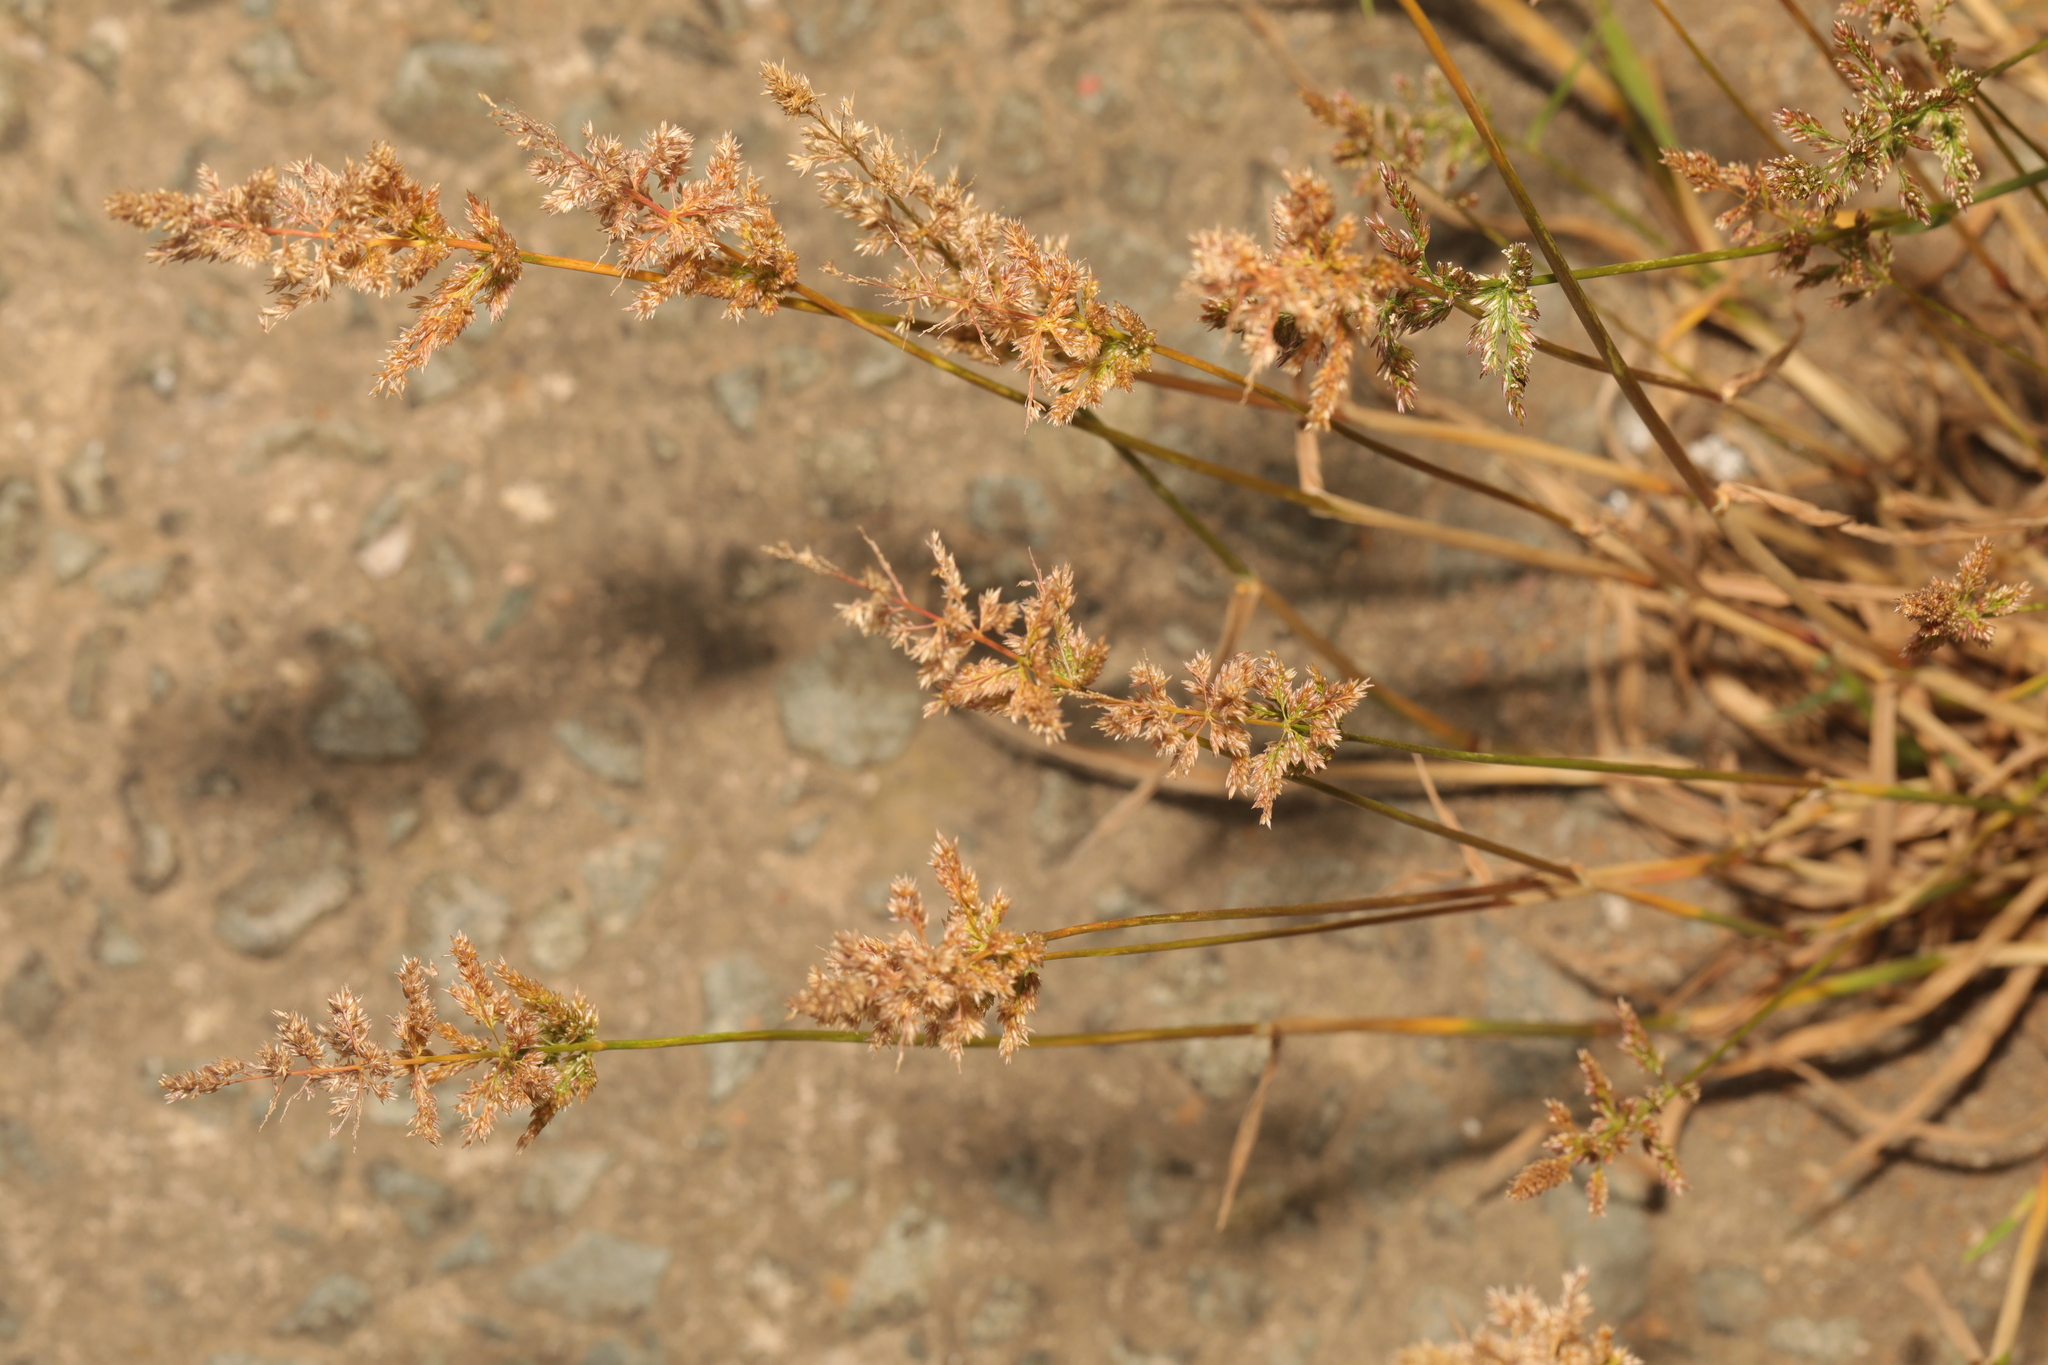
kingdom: Plantae
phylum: Tracheophyta
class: Liliopsida
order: Poales
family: Poaceae
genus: Polypogon
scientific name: Polypogon viridis
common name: Water bent
